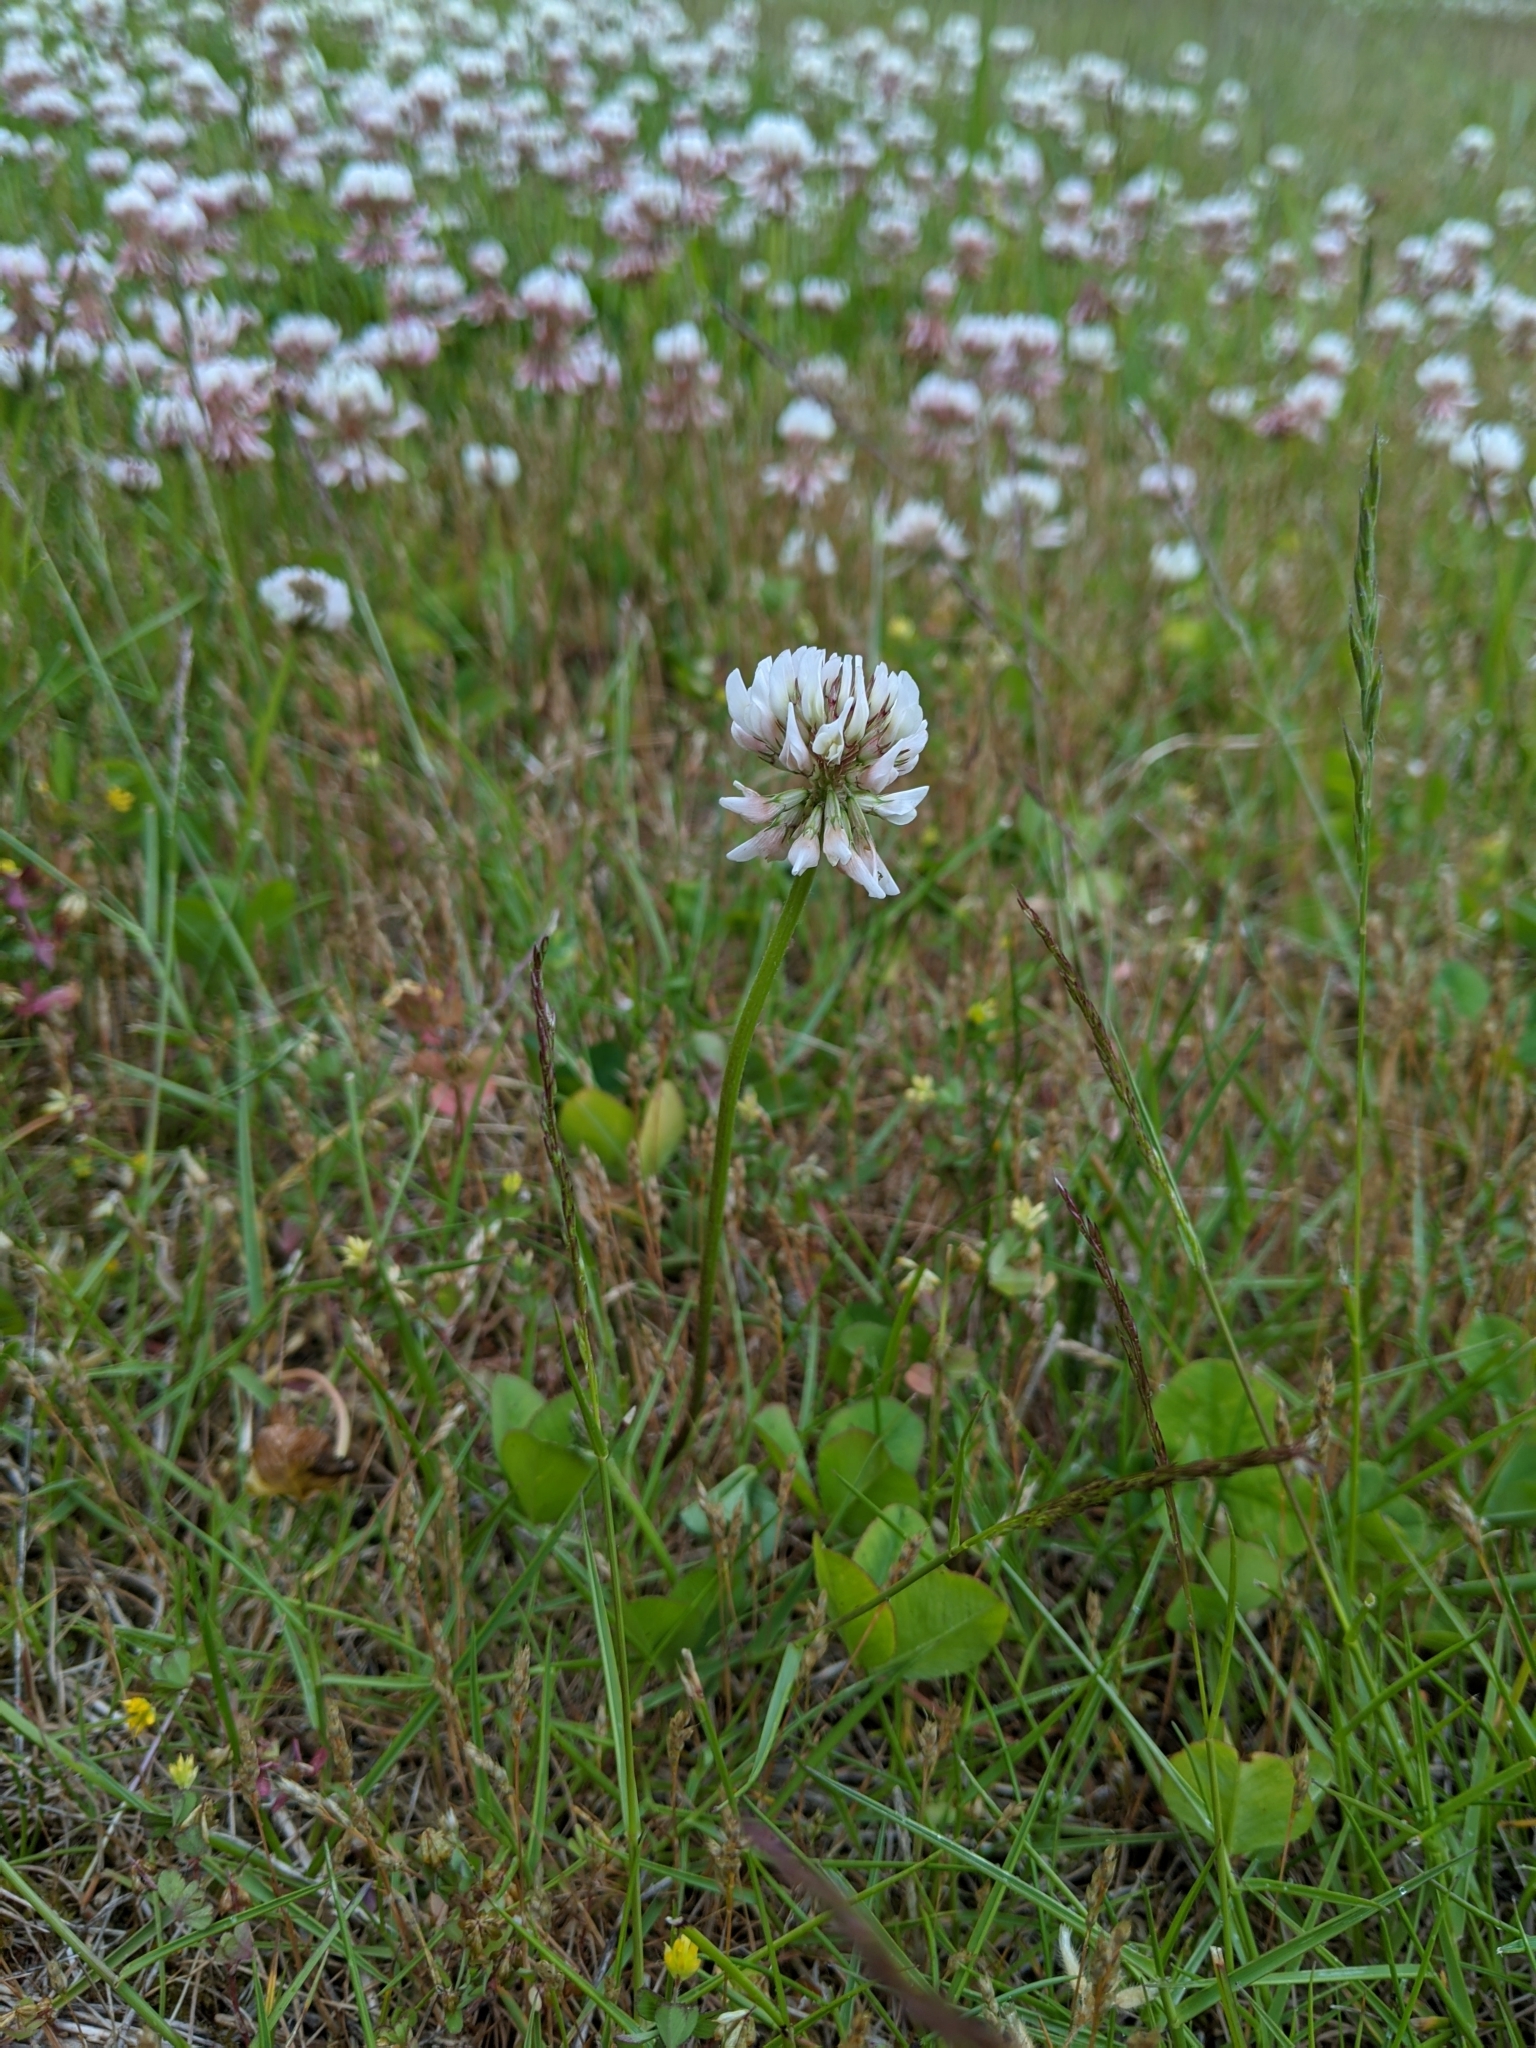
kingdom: Plantae
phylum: Tracheophyta
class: Magnoliopsida
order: Fabales
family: Fabaceae
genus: Trifolium
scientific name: Trifolium repens
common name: White clover
